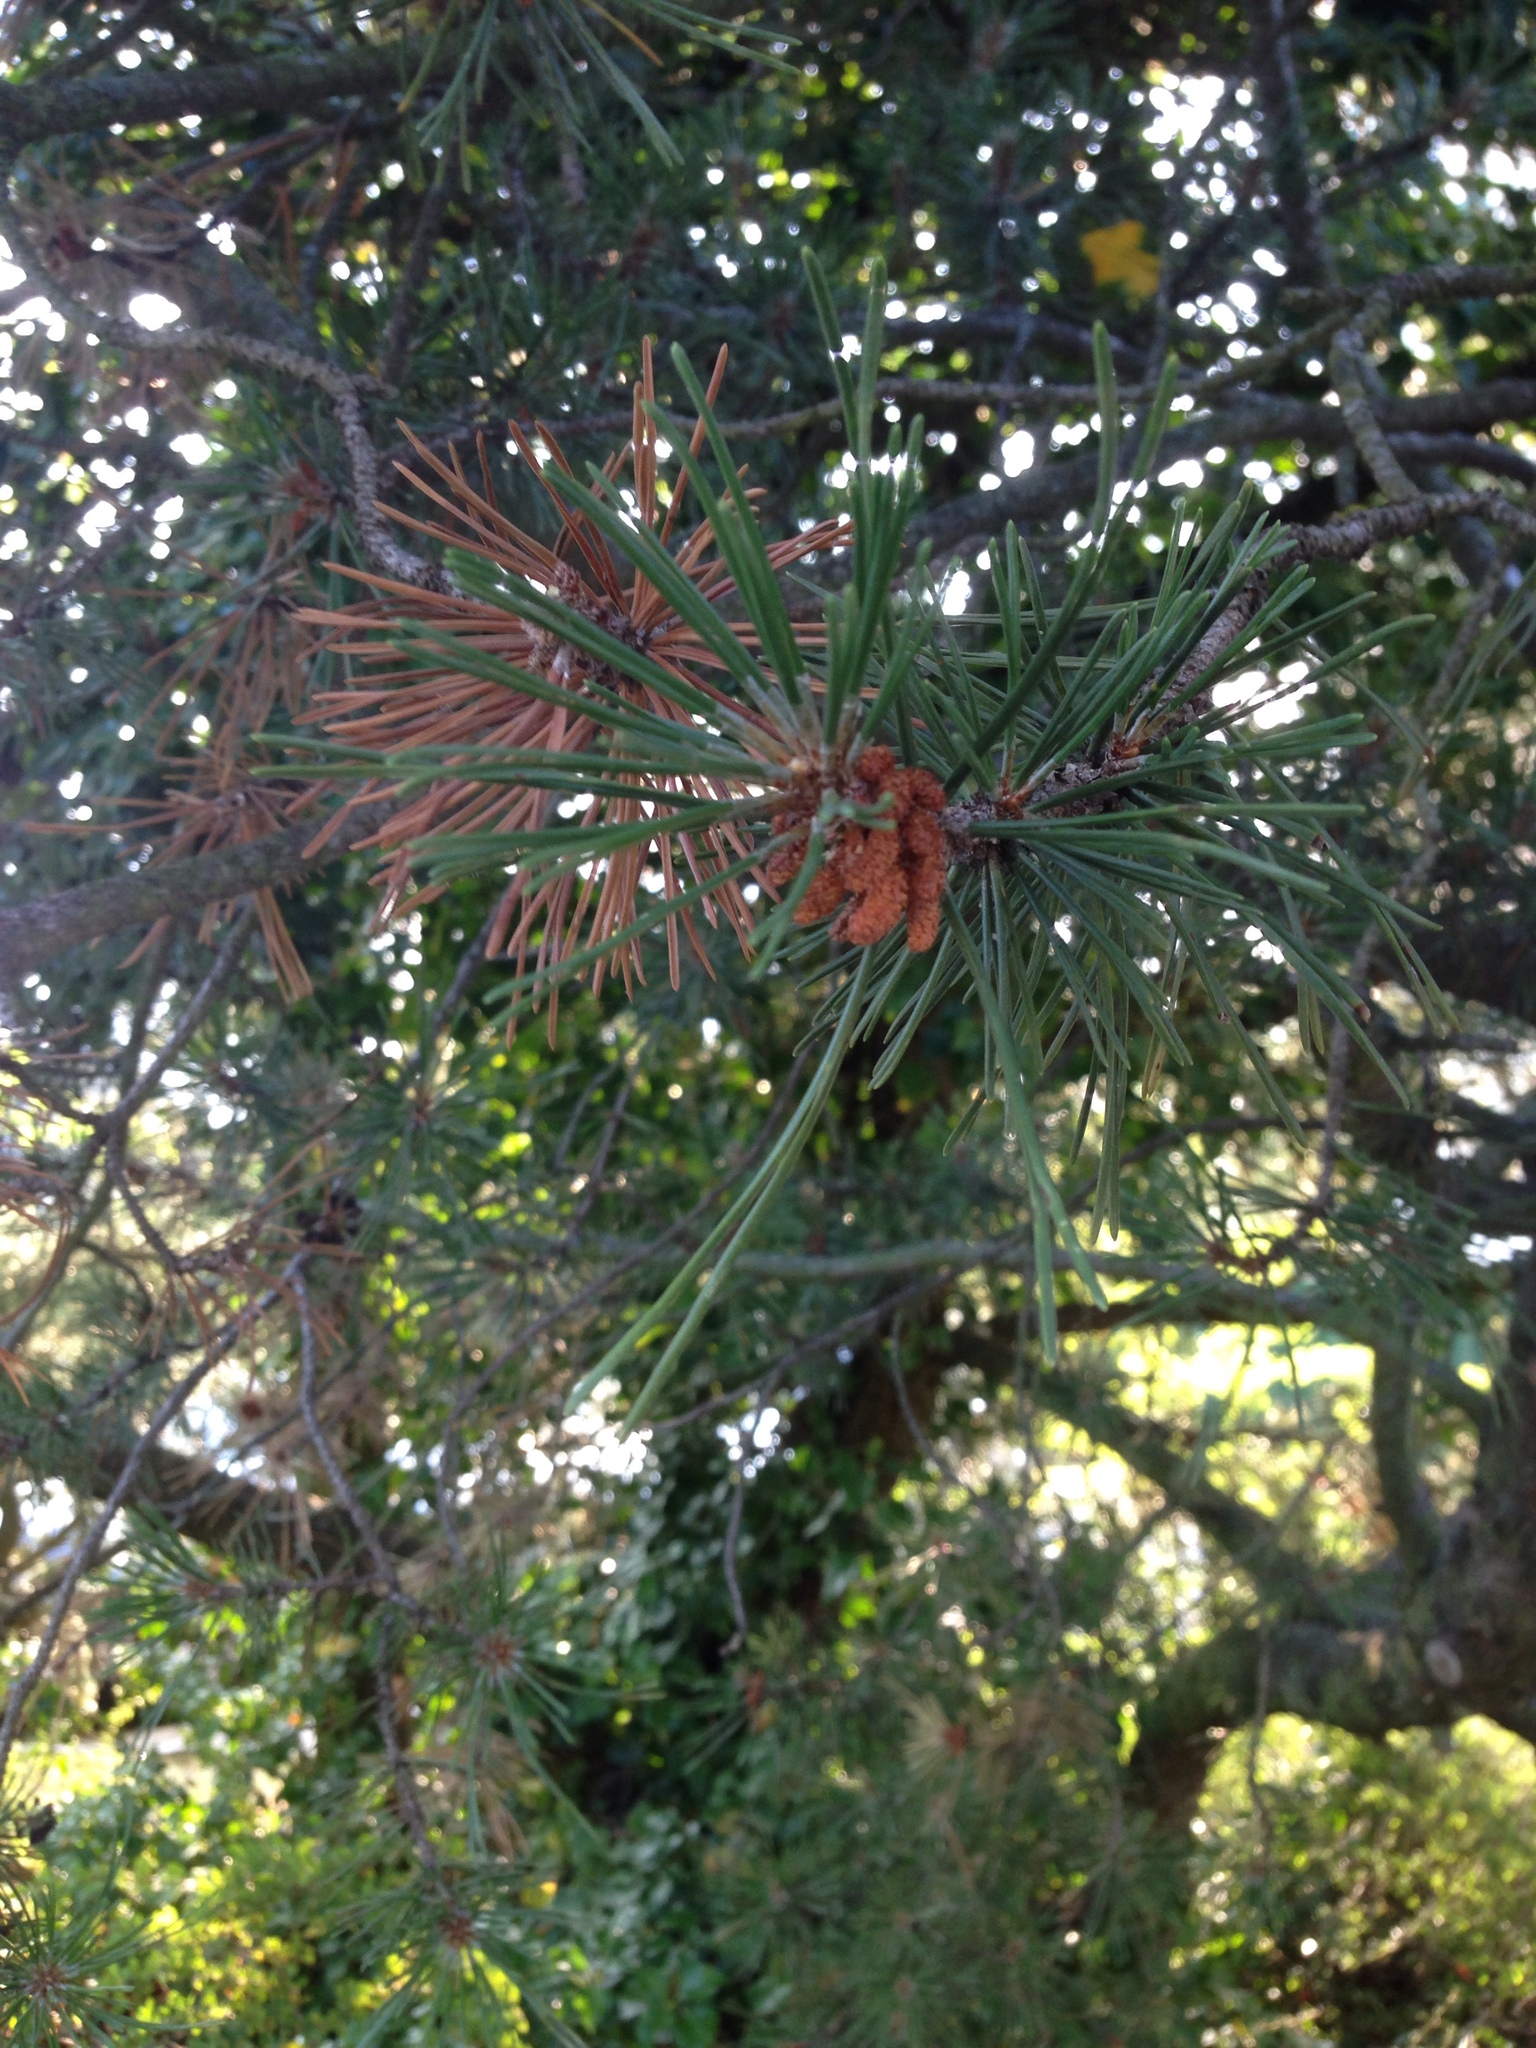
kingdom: Plantae
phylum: Tracheophyta
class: Pinopsida
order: Pinales
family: Pinaceae
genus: Pinus
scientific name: Pinus sylvestris
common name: Scots pine
